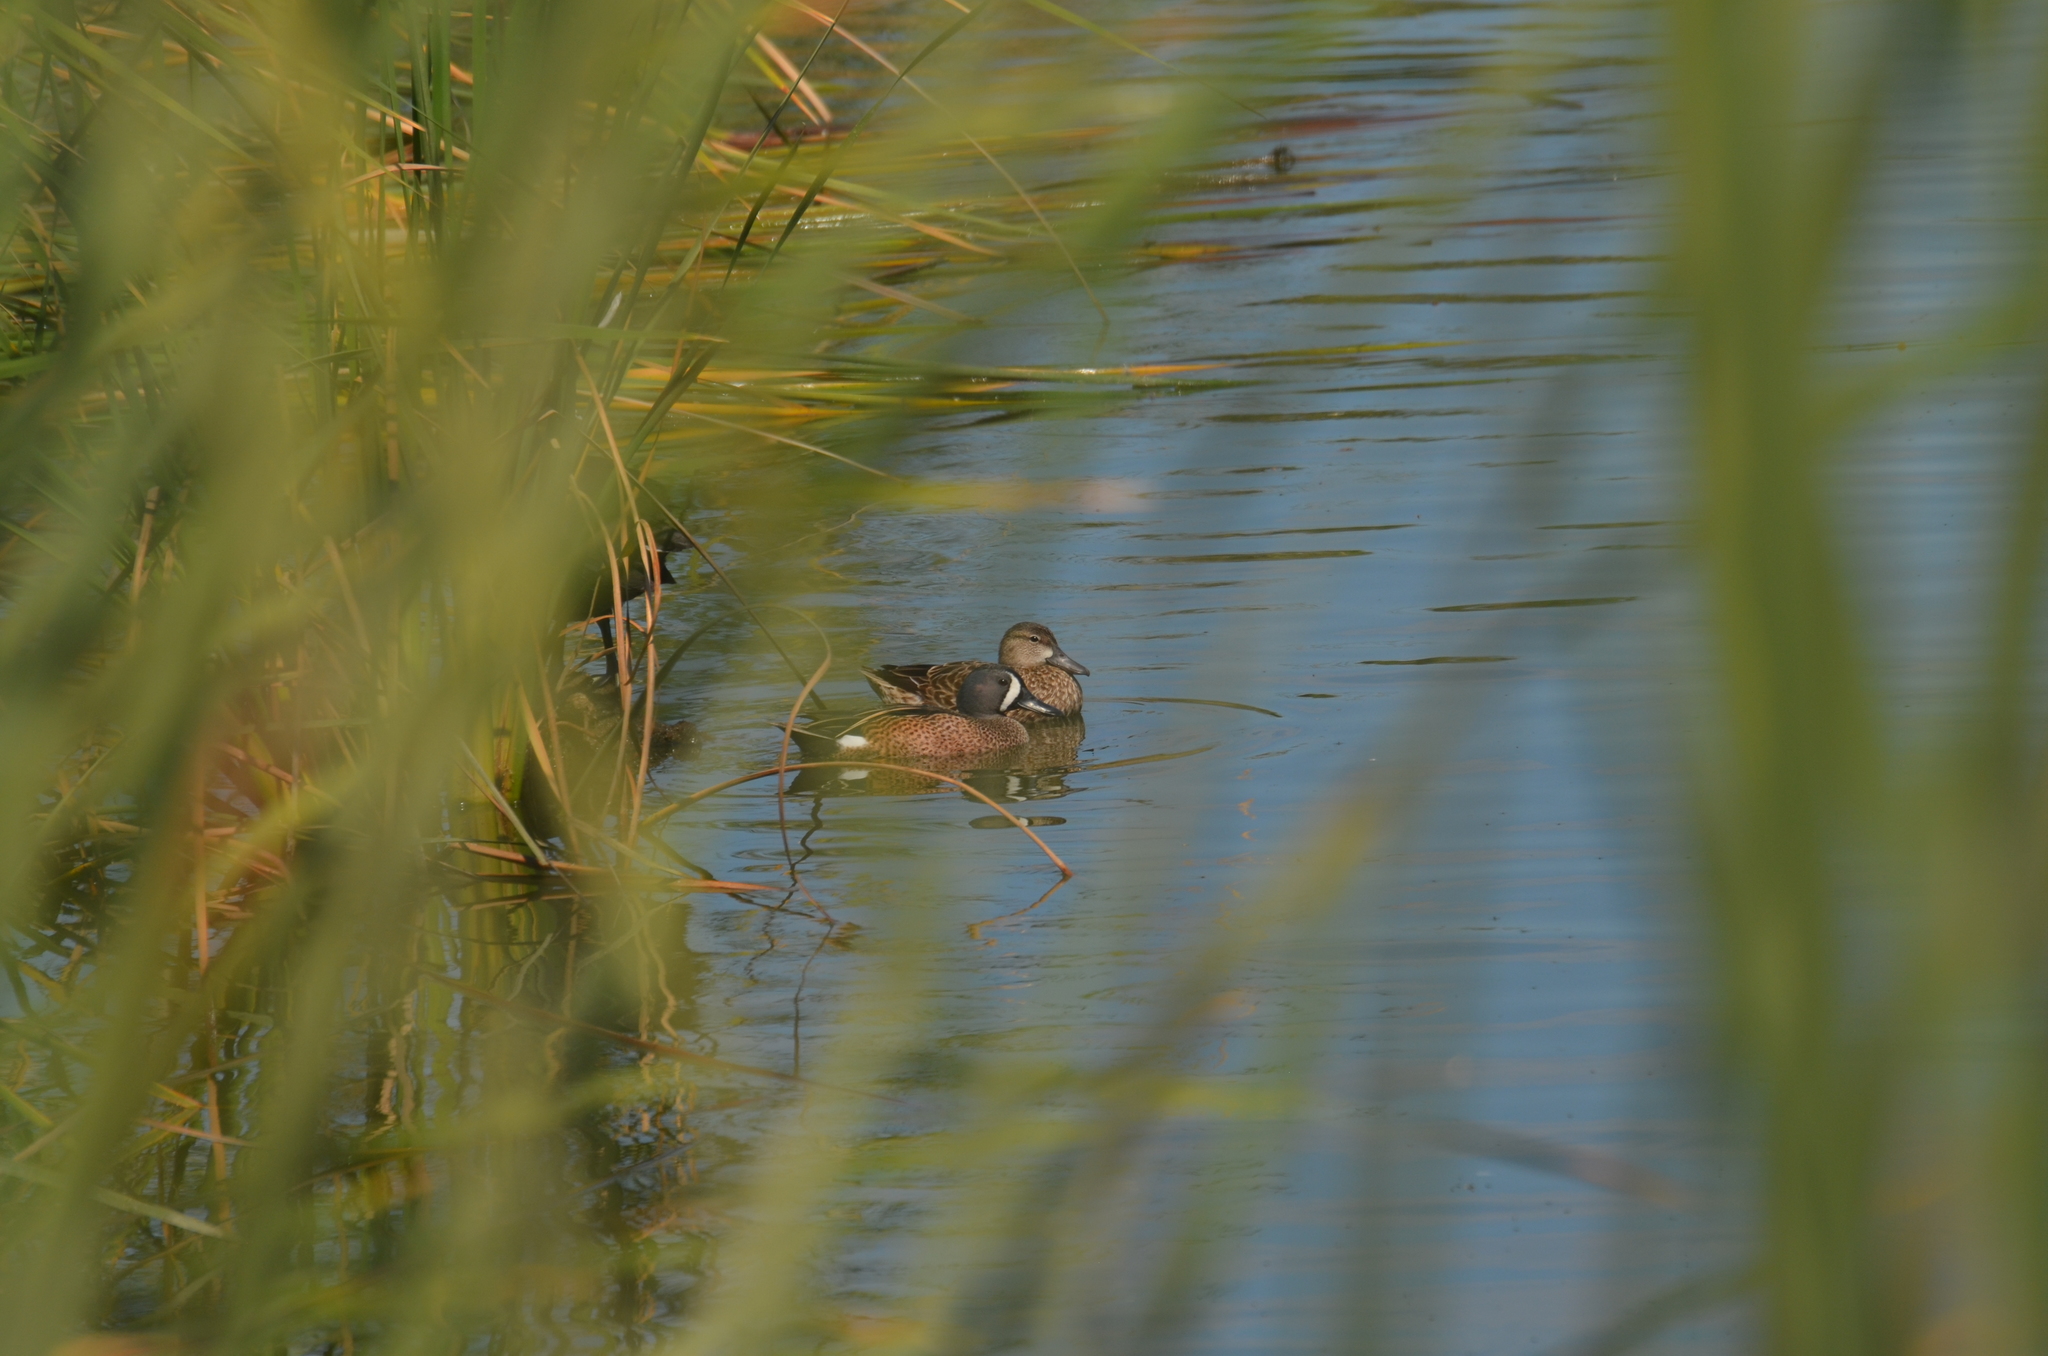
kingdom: Animalia
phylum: Chordata
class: Aves
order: Anseriformes
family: Anatidae
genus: Spatula
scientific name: Spatula discors
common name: Blue-winged teal
